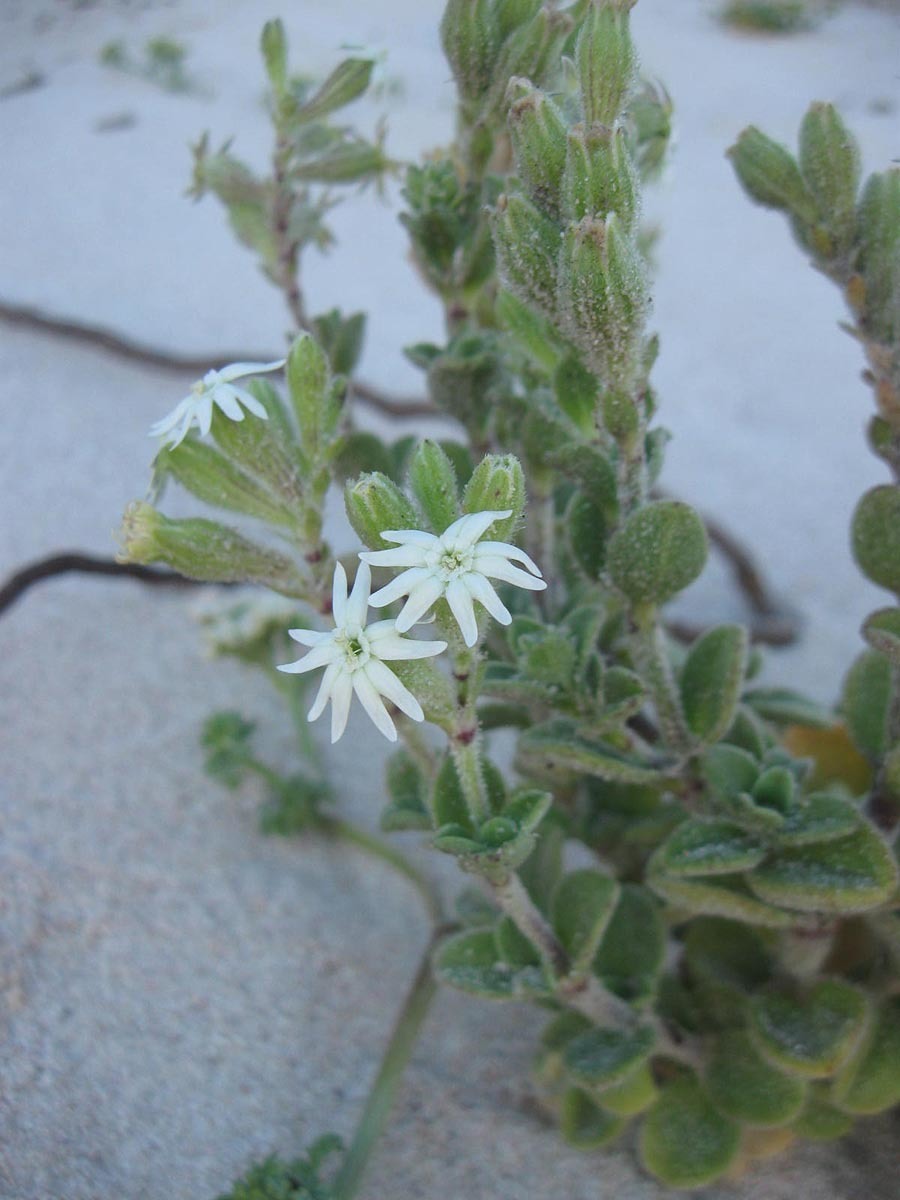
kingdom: Plantae
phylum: Tracheophyta
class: Magnoliopsida
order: Caryophyllales
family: Caryophyllaceae
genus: Silene
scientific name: Silene crassifolia
